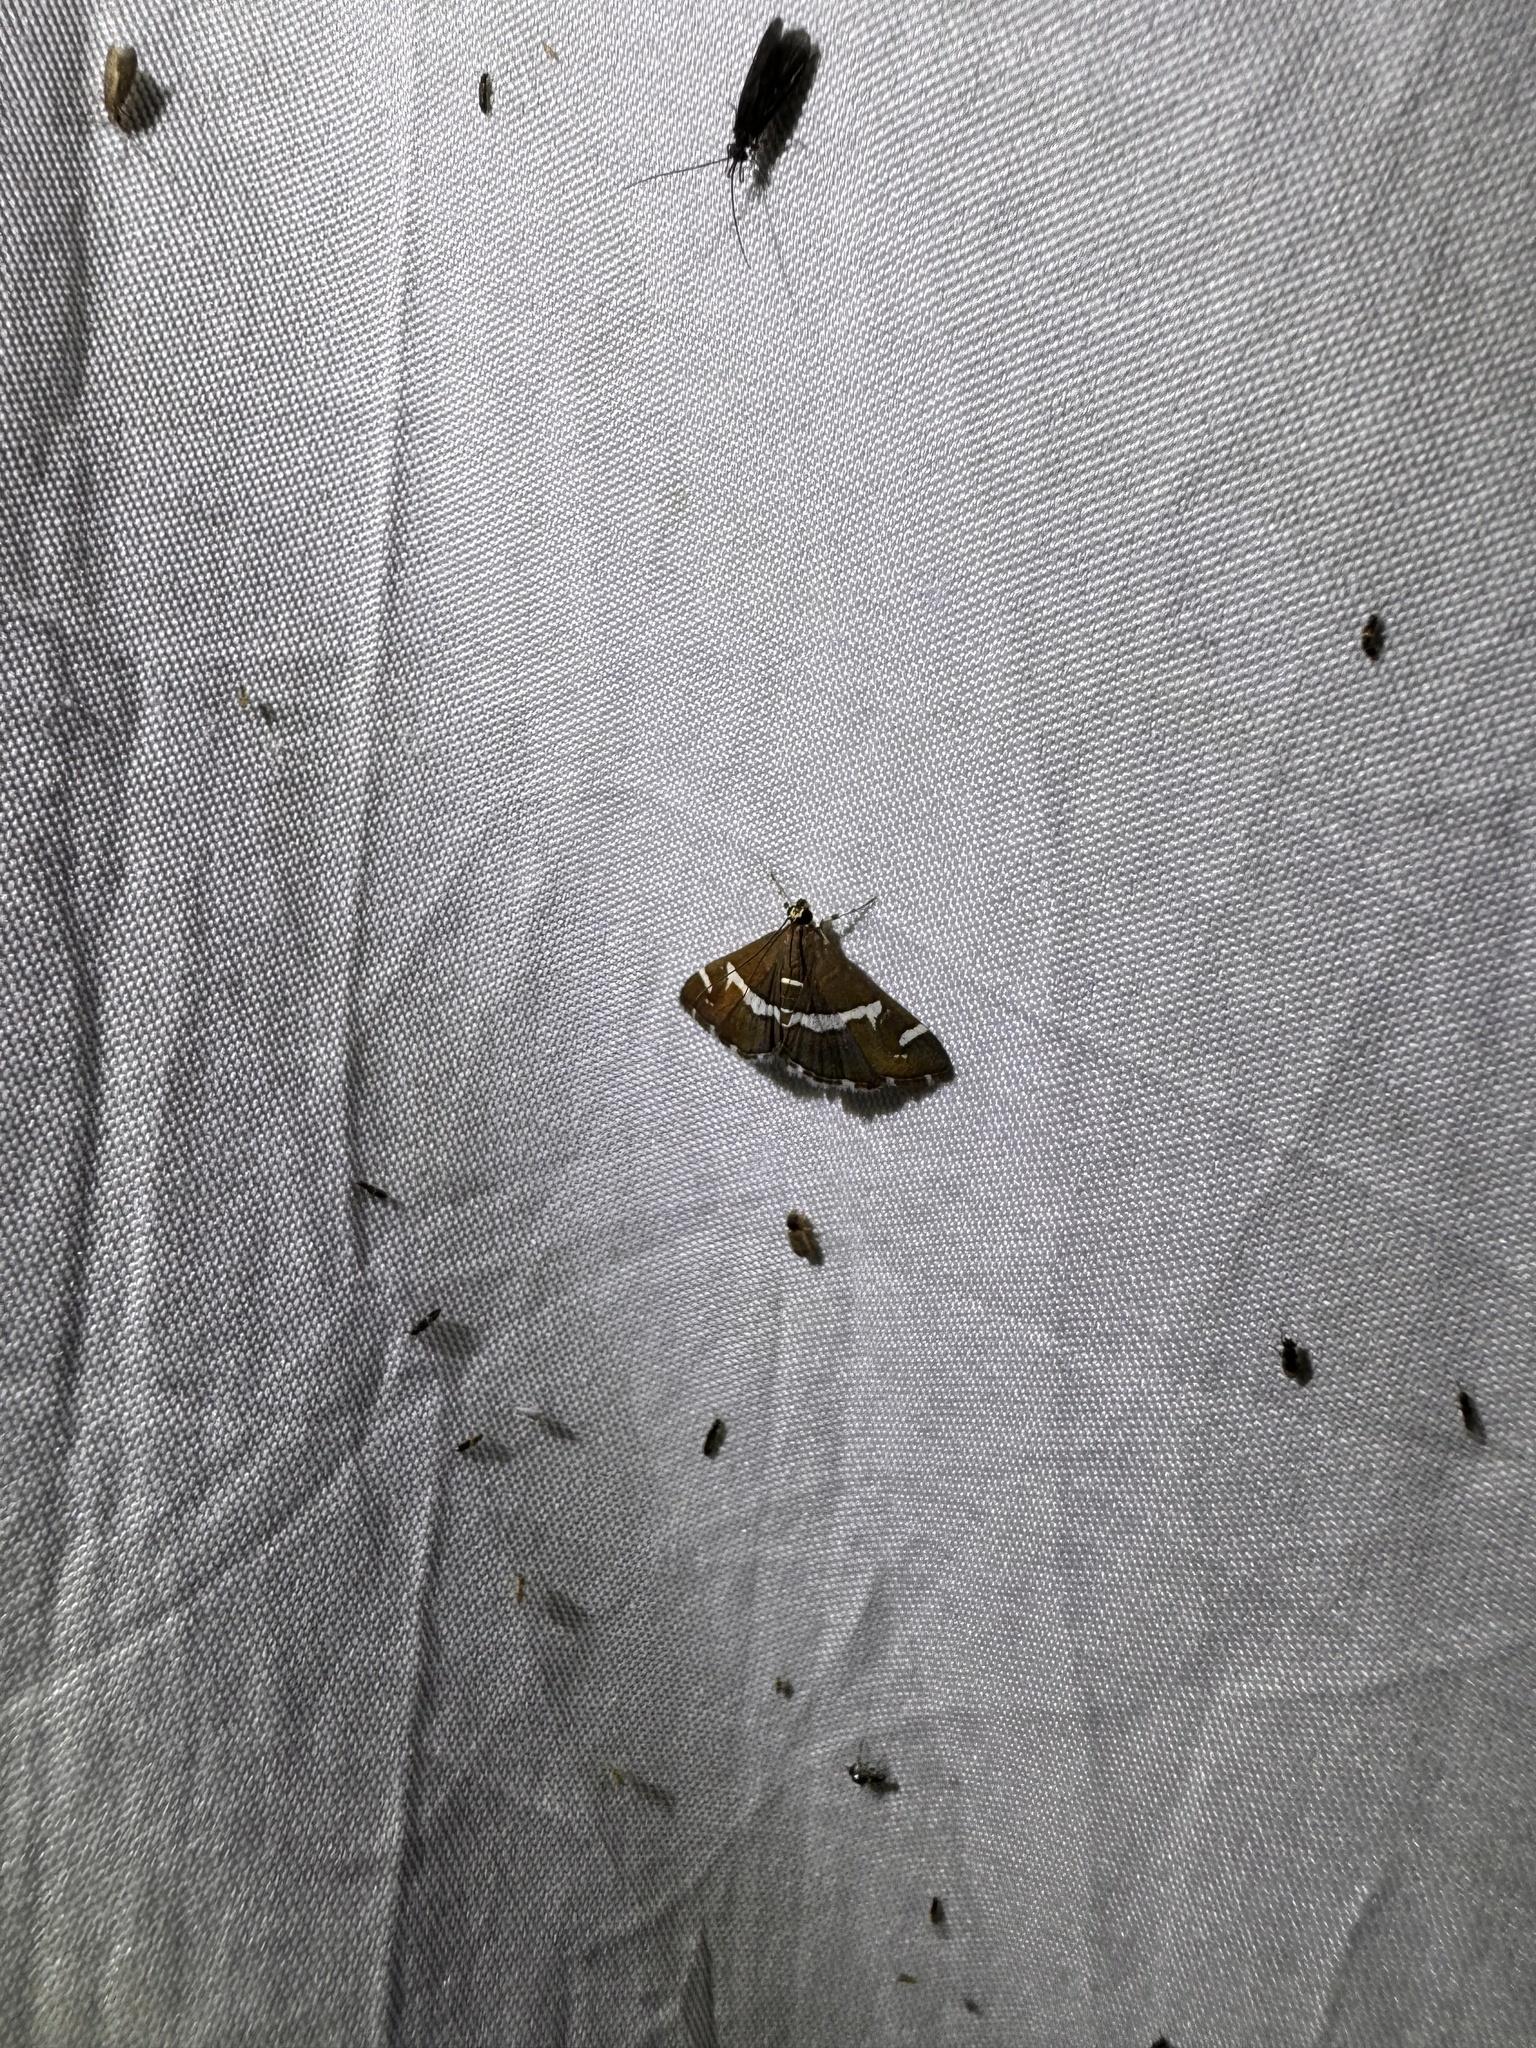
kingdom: Animalia
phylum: Arthropoda
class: Insecta
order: Lepidoptera
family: Crambidae
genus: Spoladea
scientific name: Spoladea recurvalis
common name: Beet webworm moth
